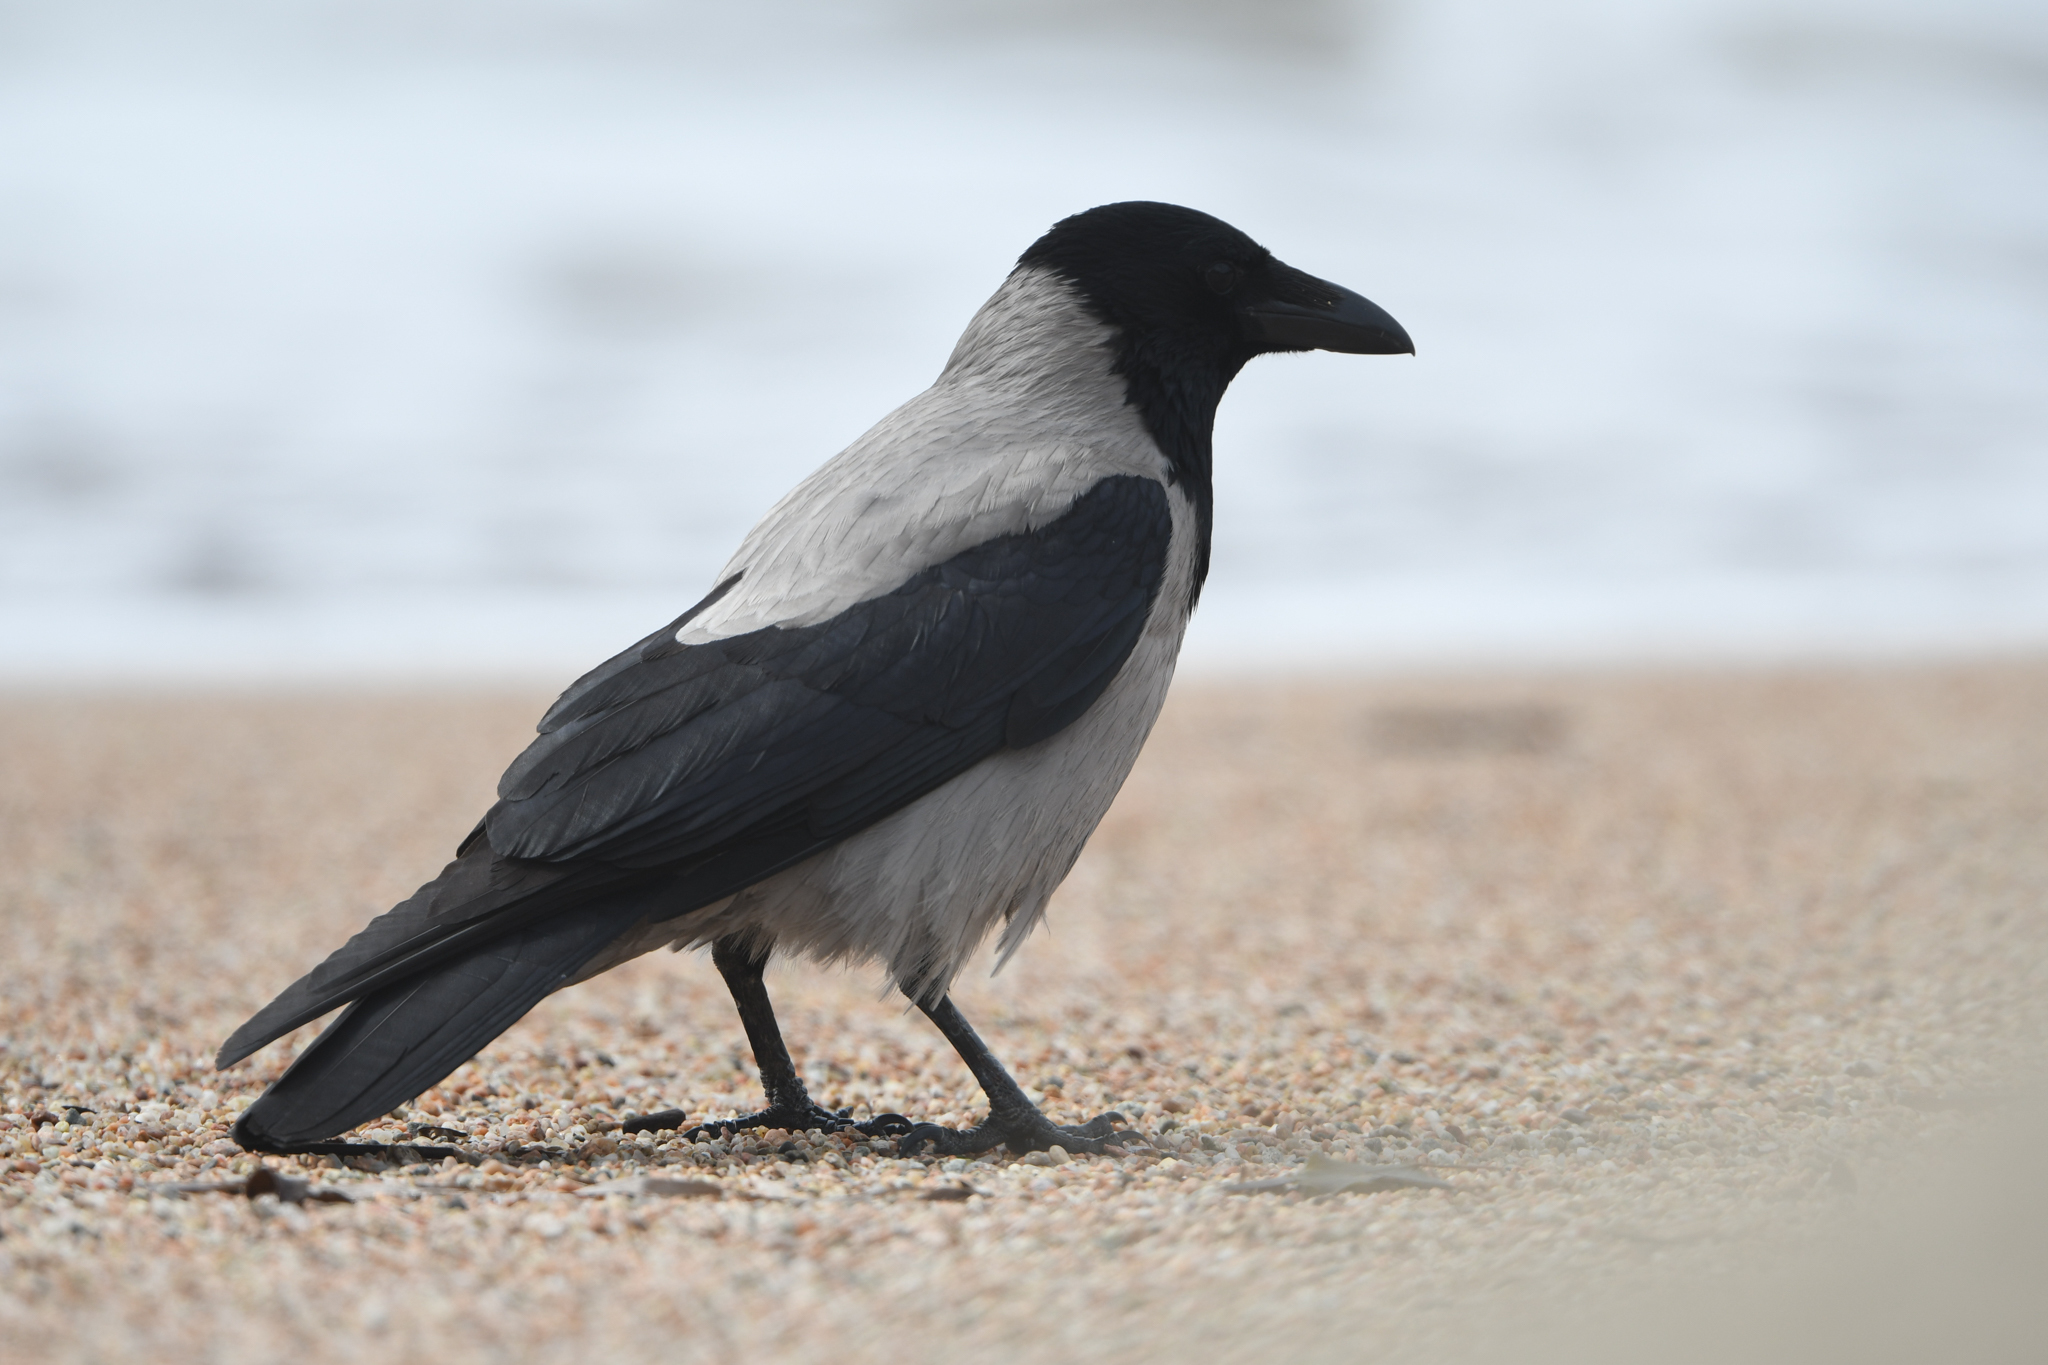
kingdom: Animalia
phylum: Chordata
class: Aves
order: Passeriformes
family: Corvidae
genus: Corvus
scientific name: Corvus cornix
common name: Hooded crow
